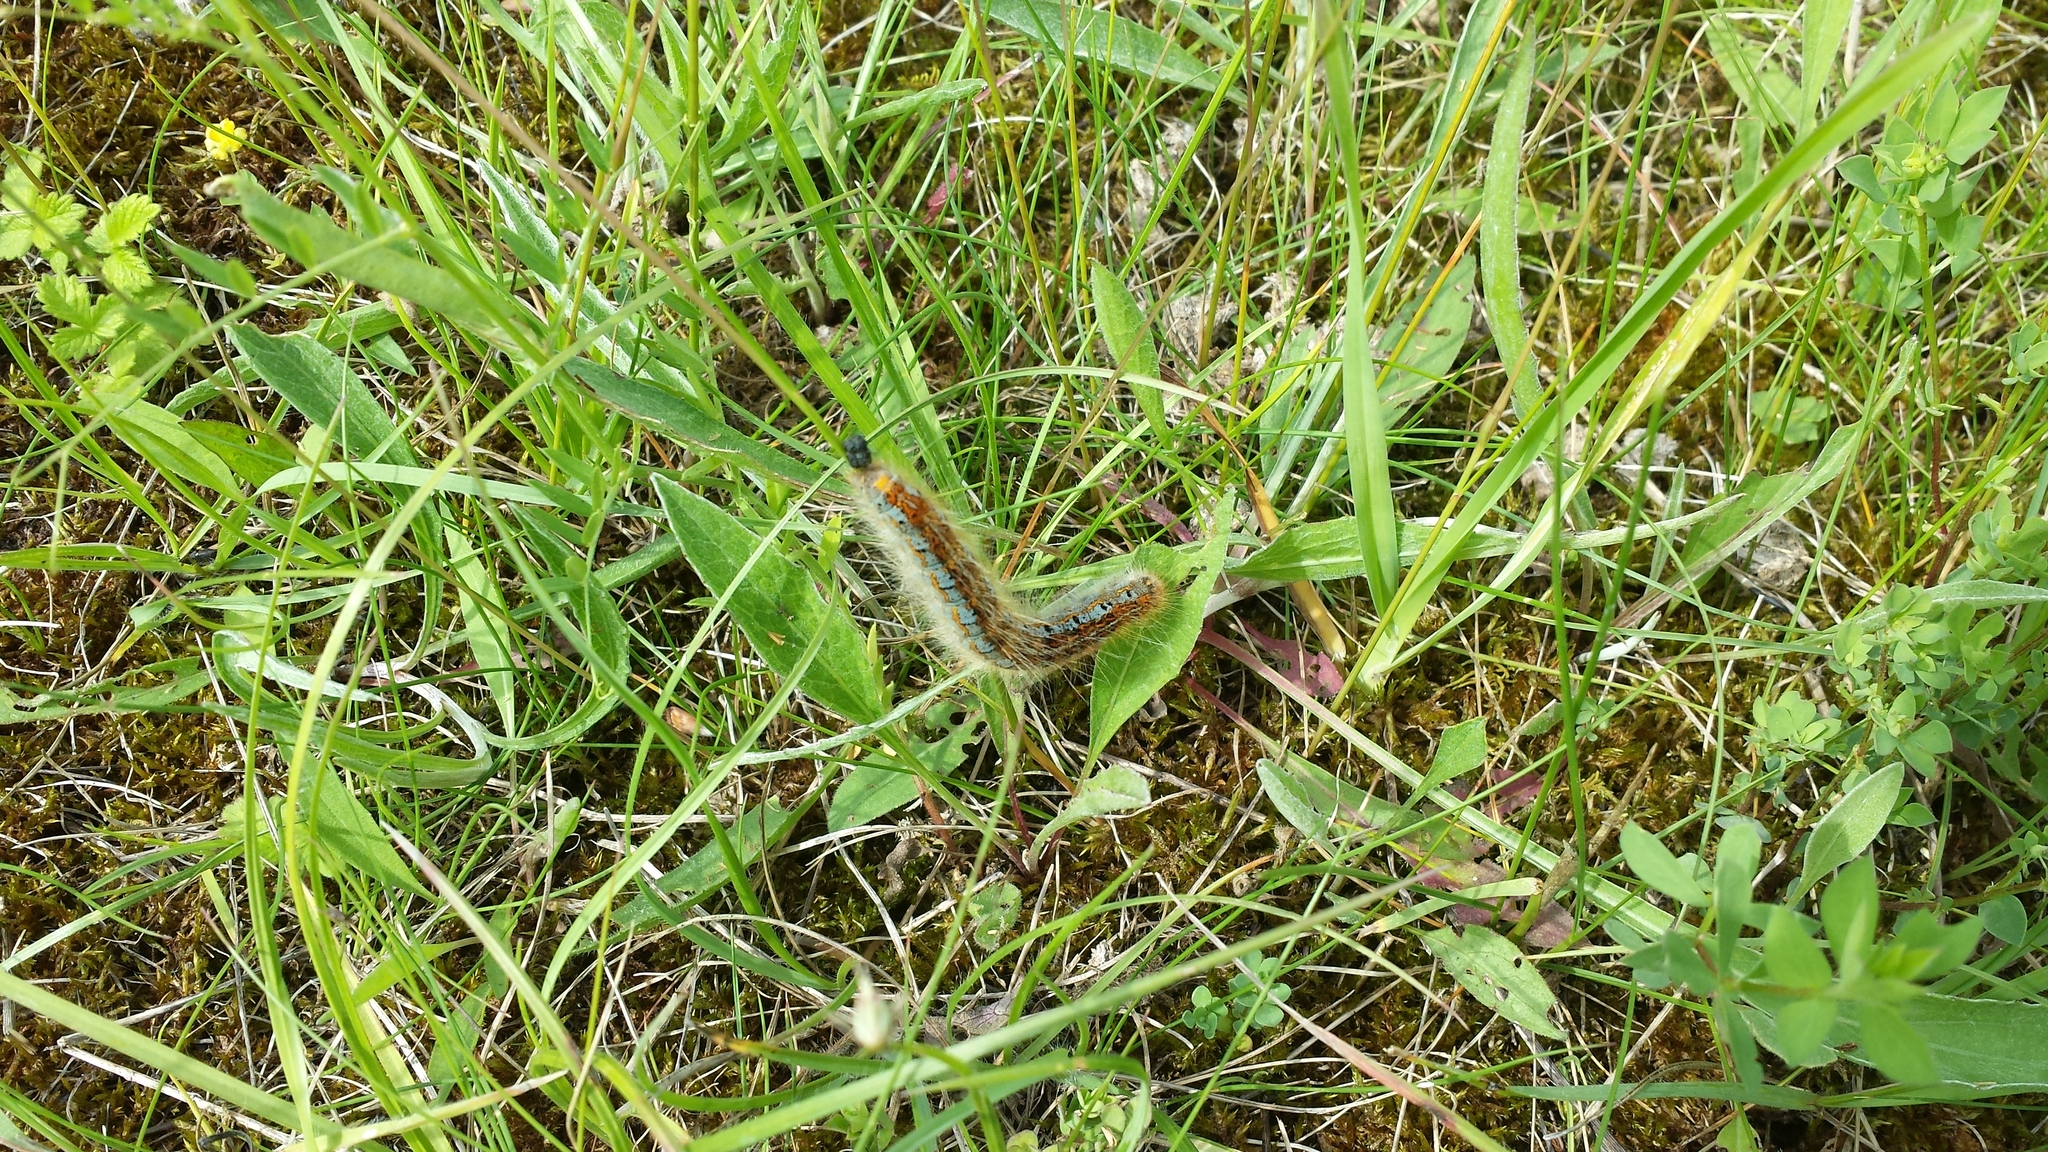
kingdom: Animalia
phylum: Arthropoda
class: Insecta
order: Lepidoptera
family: Lasiocampidae
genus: Malacosoma
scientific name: Malacosoma castrense
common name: Ground lackey
